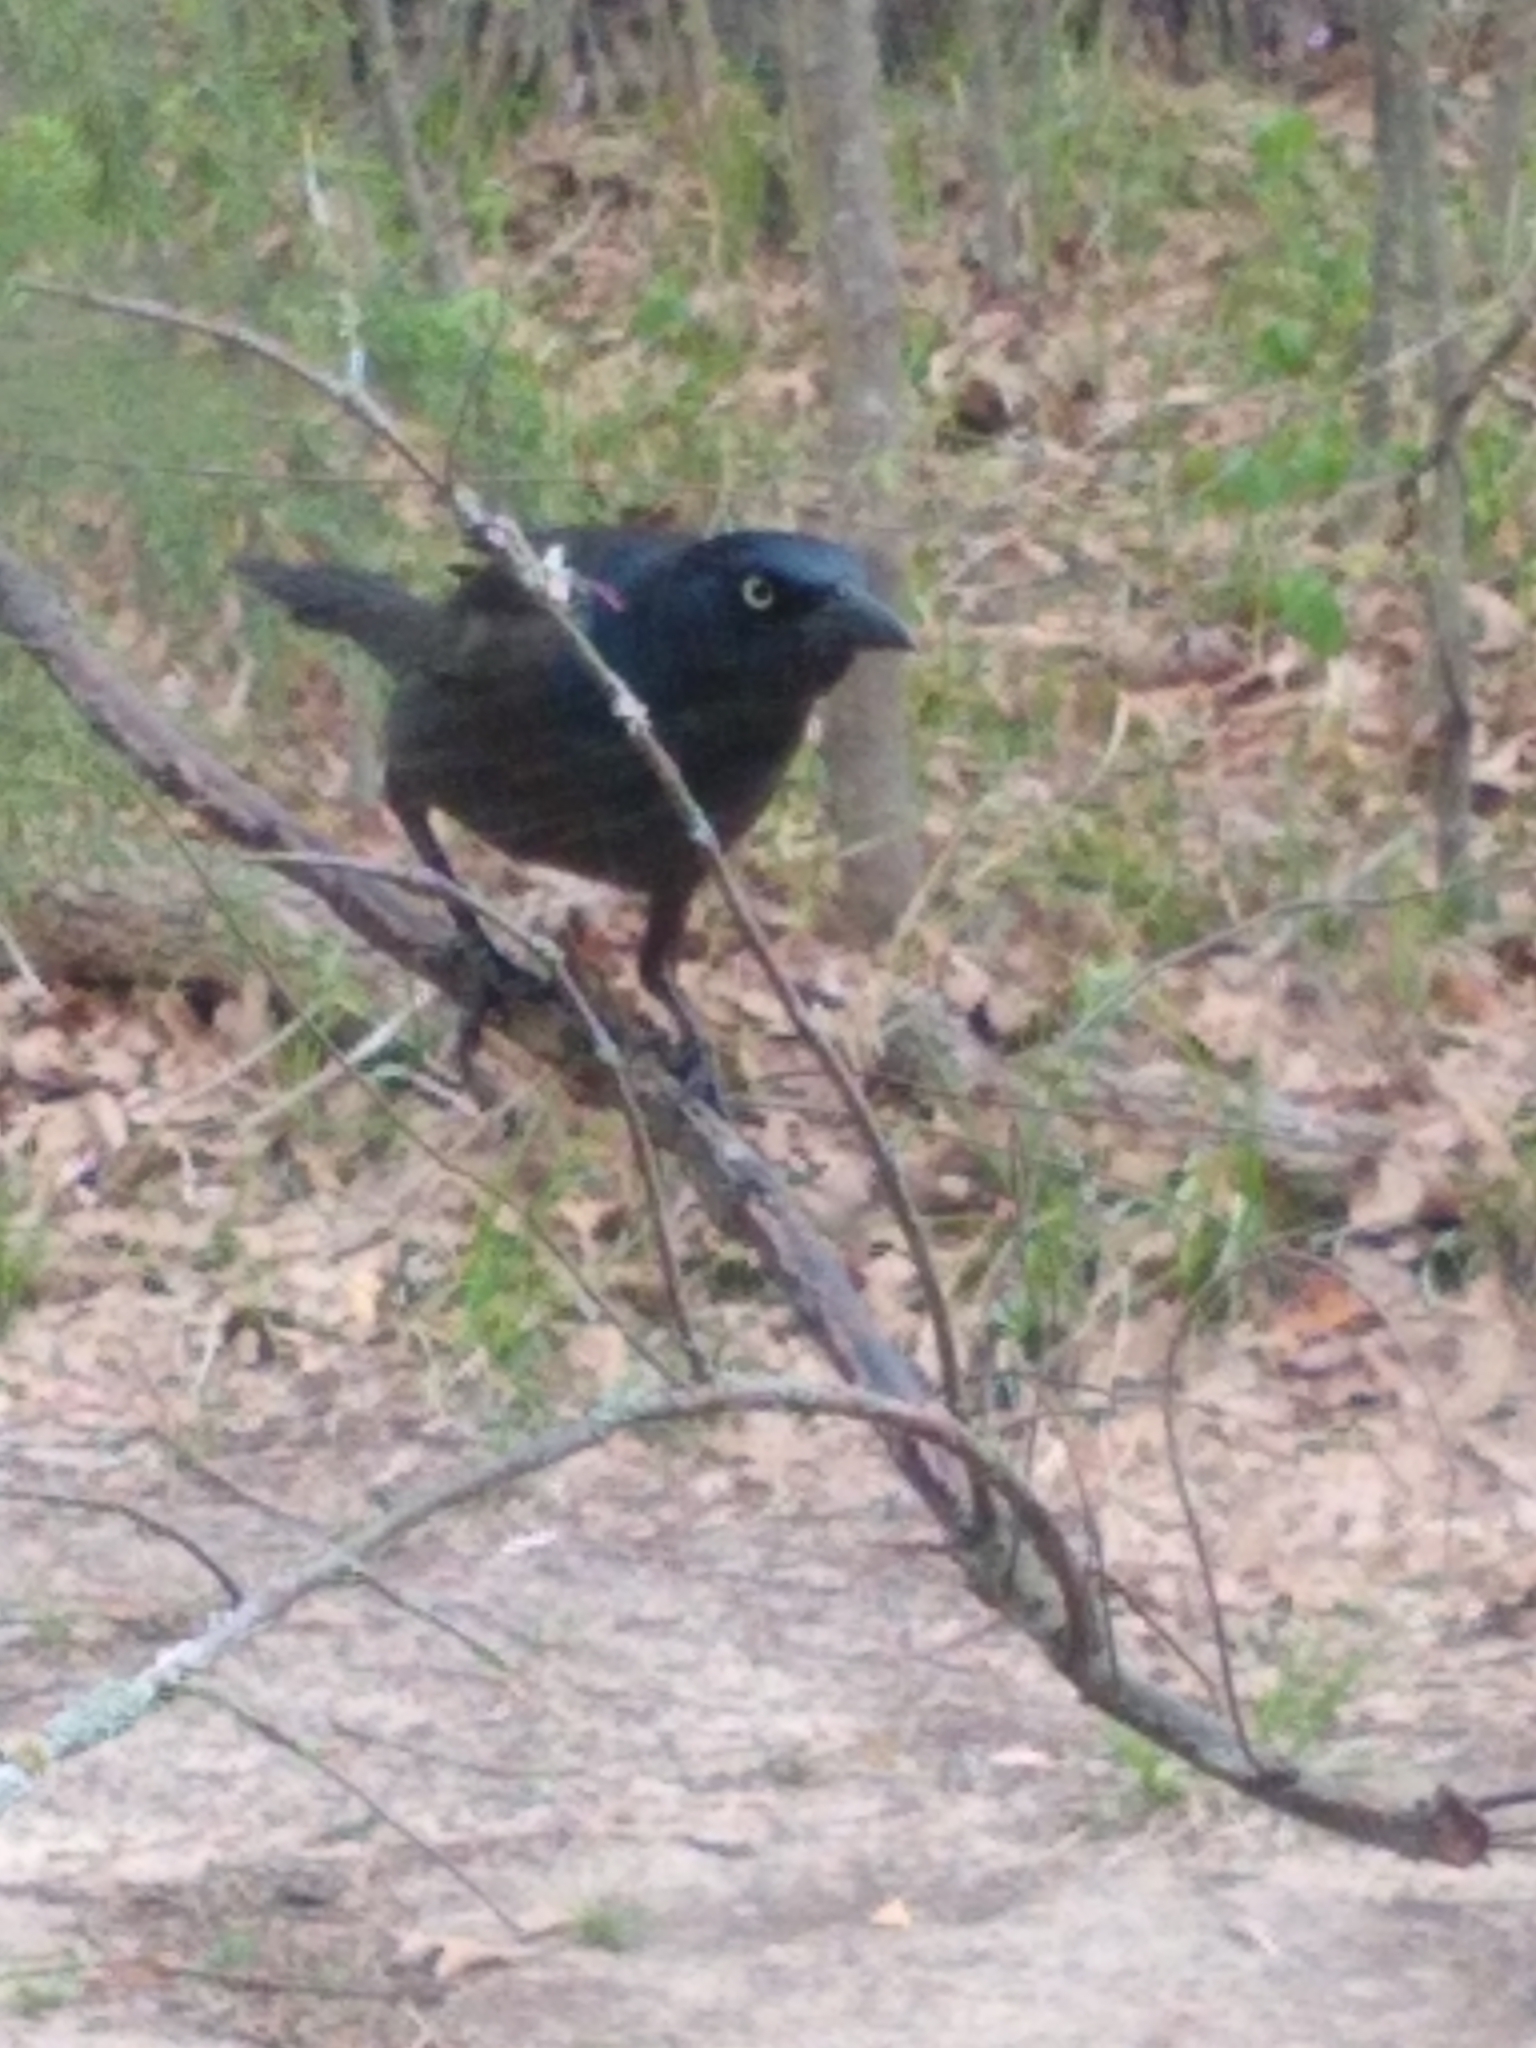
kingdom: Animalia
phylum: Chordata
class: Aves
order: Passeriformes
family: Icteridae
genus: Quiscalus
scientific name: Quiscalus quiscula
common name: Common grackle
